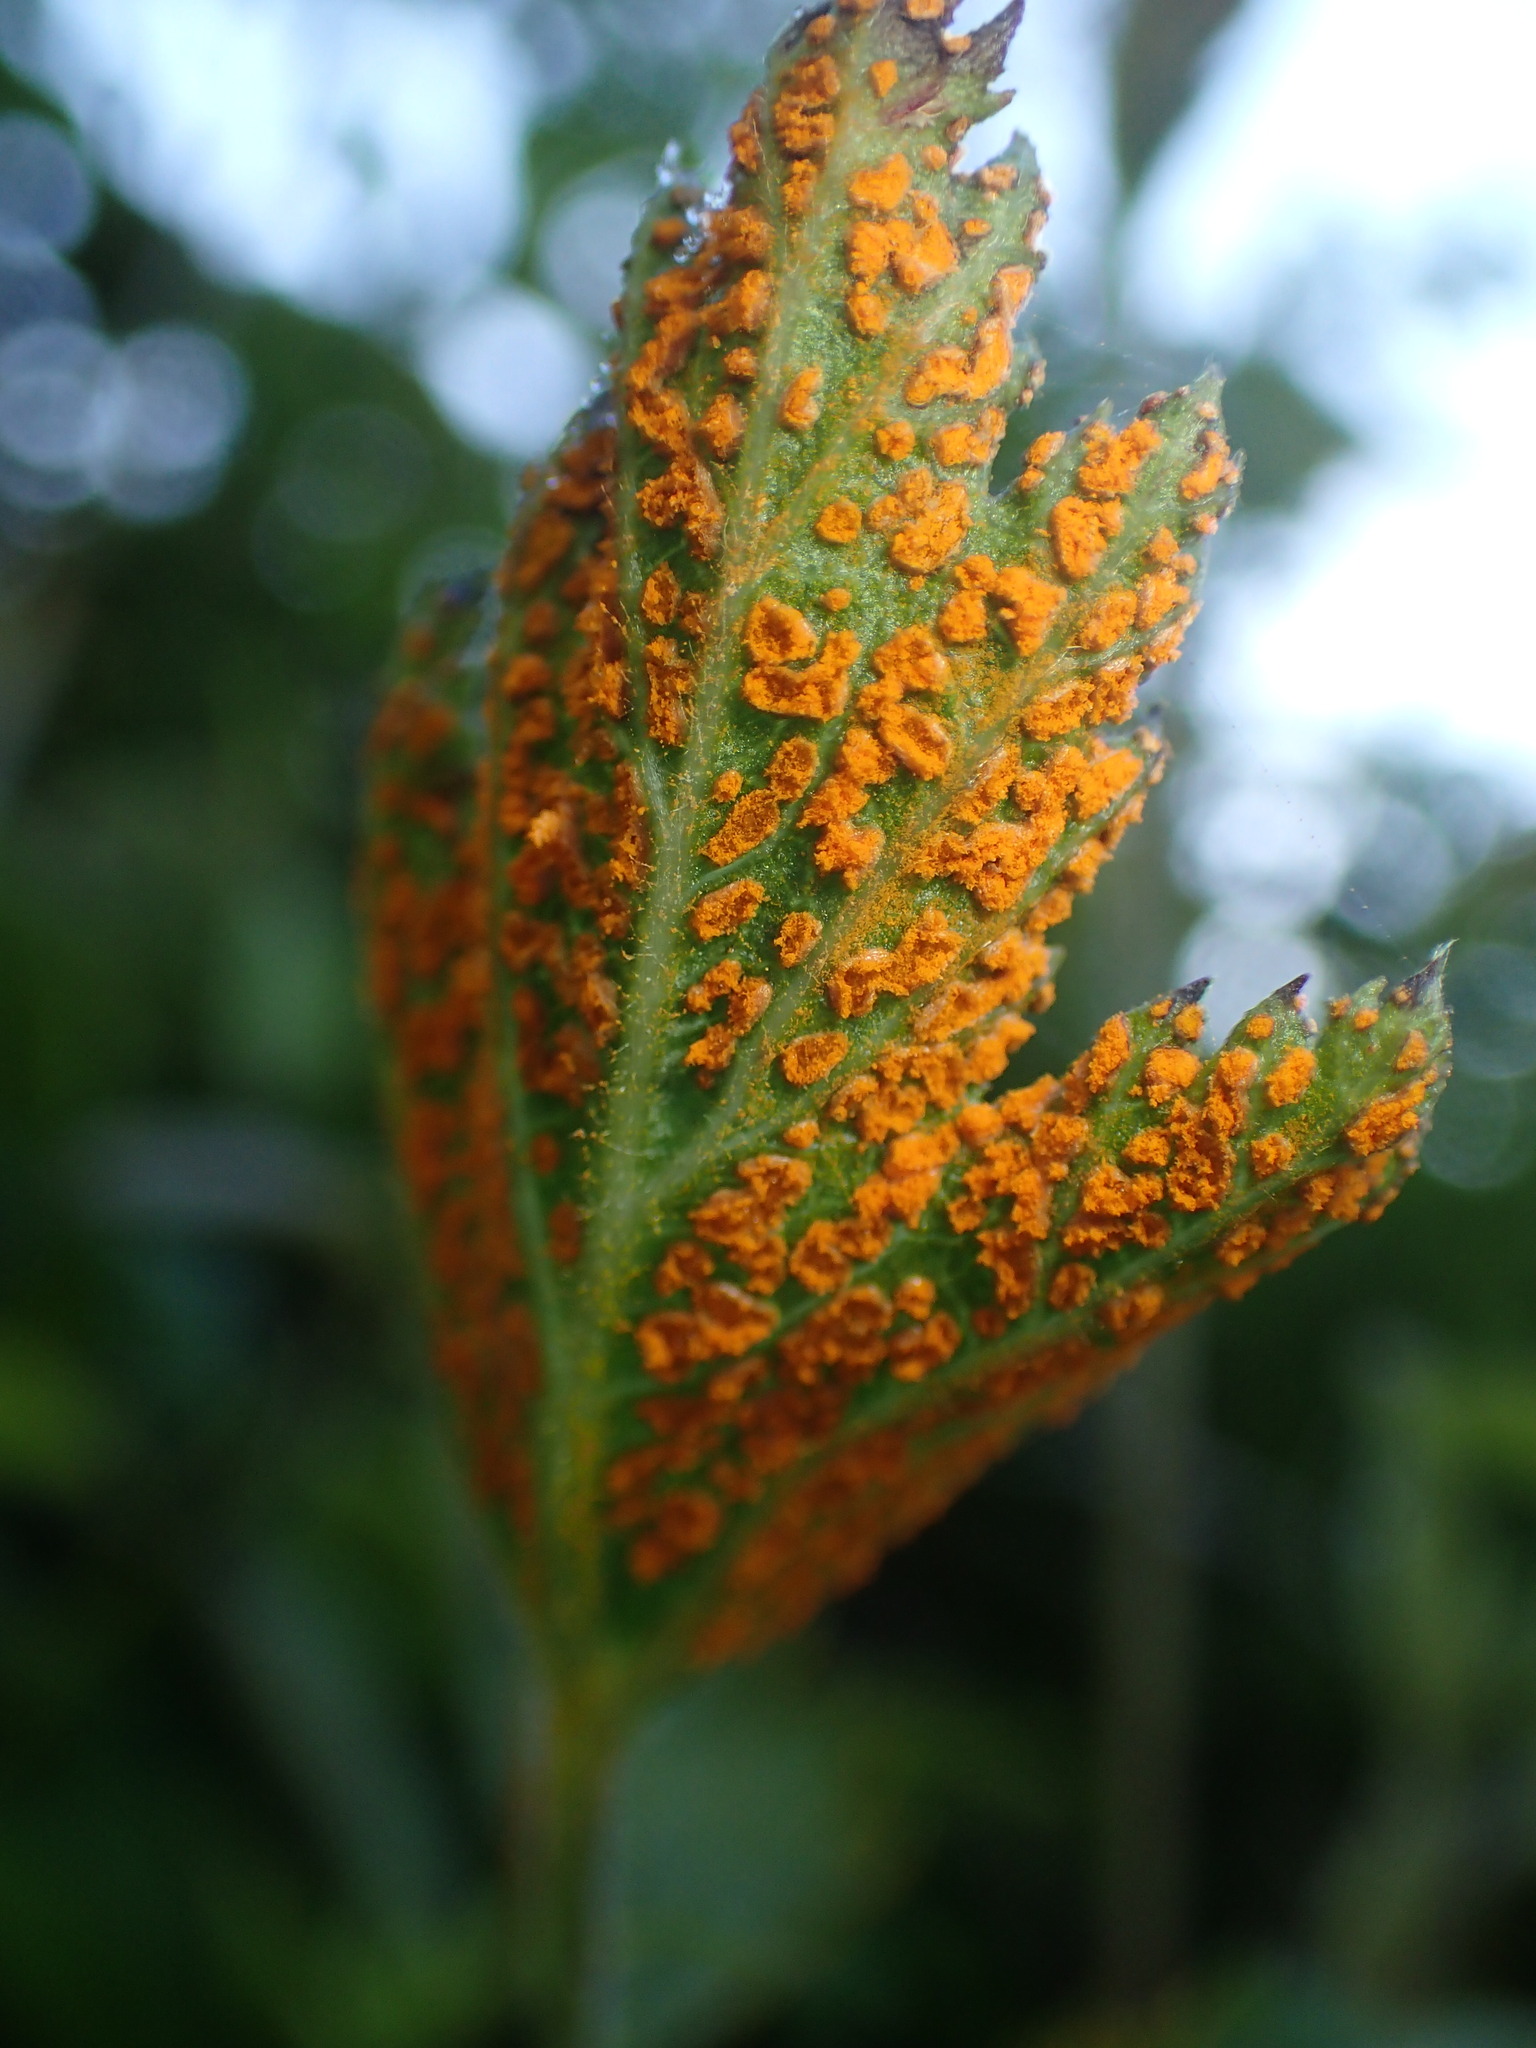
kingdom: Fungi
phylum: Basidiomycota
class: Pucciniomycetes
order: Pucciniales
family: Phragmidiaceae
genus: Arthuriomyces
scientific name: Arthuriomyces peckianus
